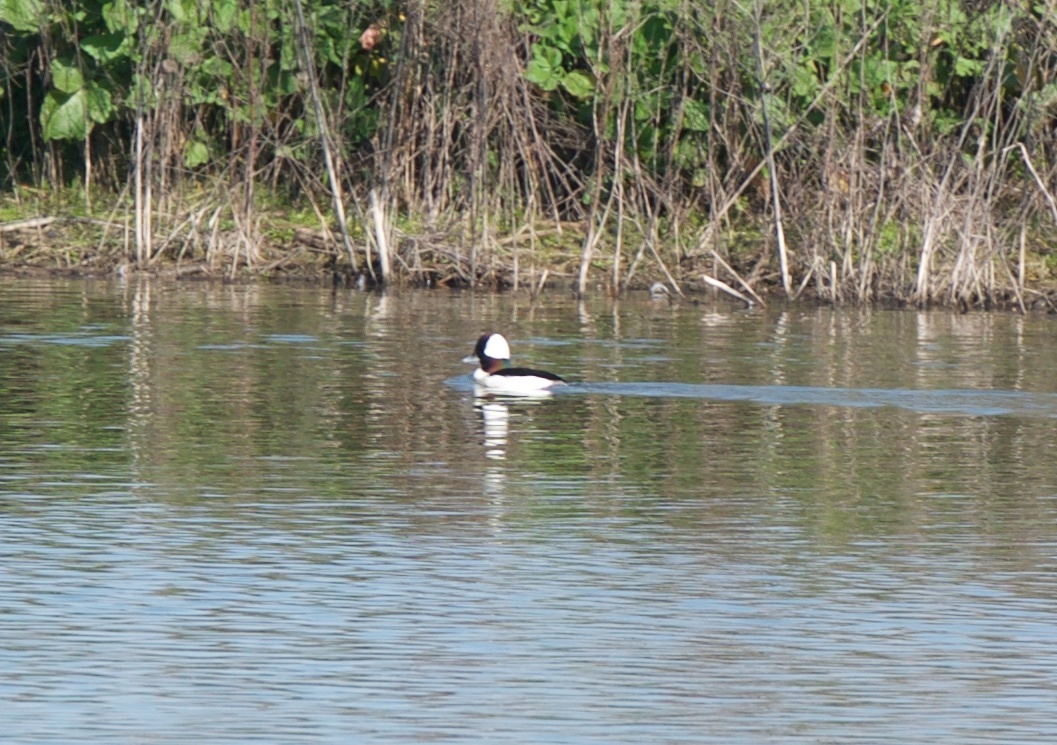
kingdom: Animalia
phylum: Chordata
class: Aves
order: Anseriformes
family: Anatidae
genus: Bucephala
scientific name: Bucephala albeola
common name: Bufflehead
